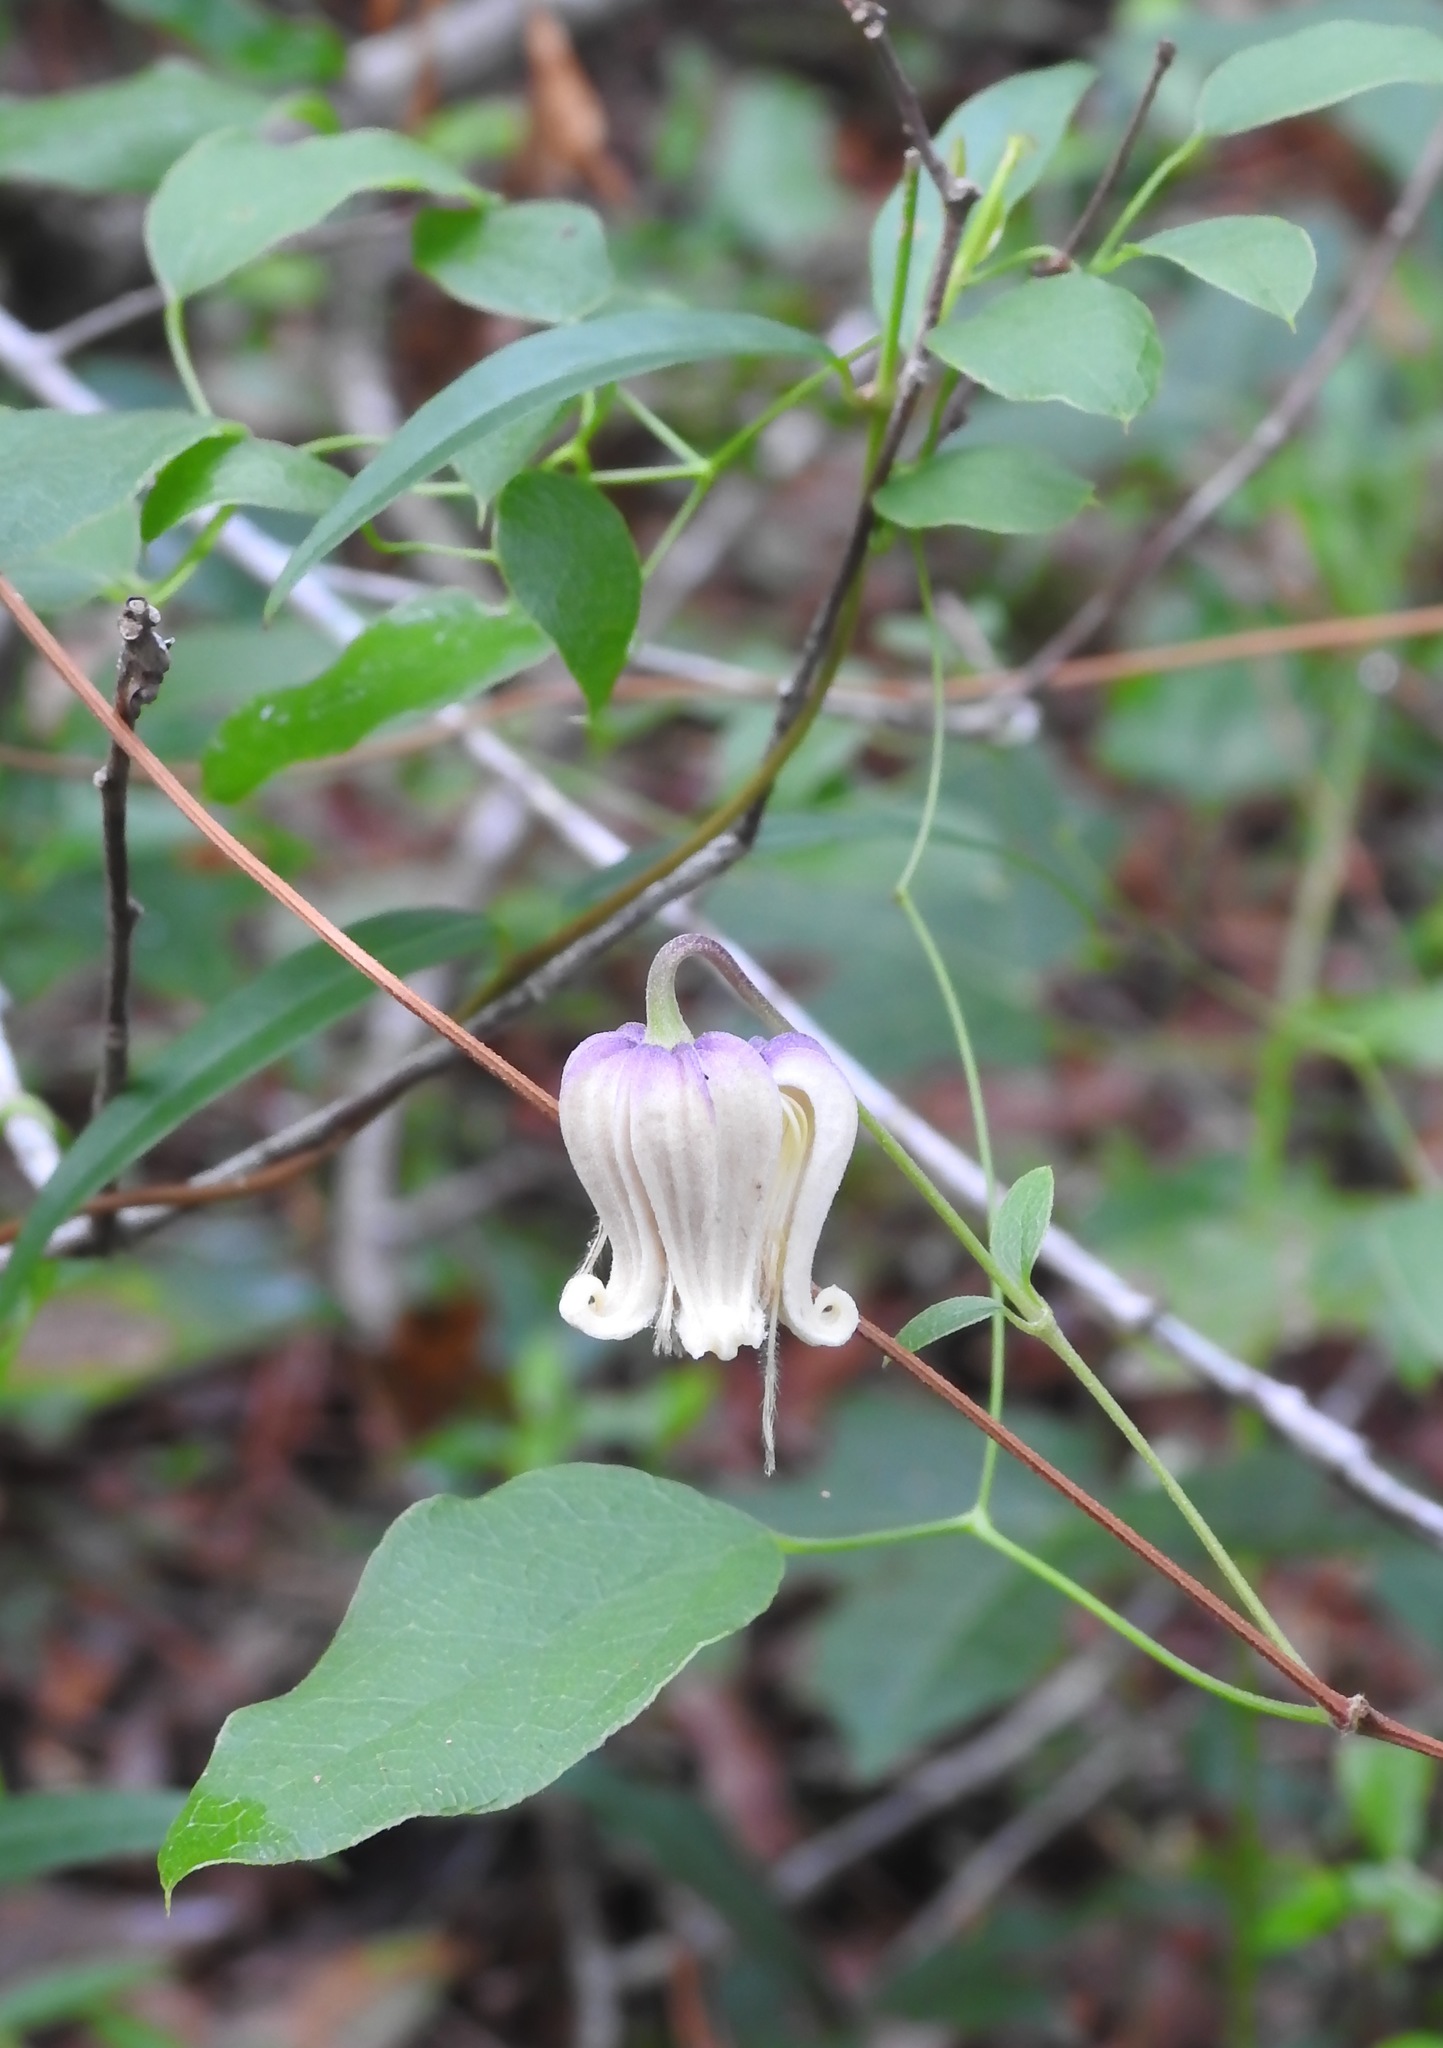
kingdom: Plantae
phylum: Tracheophyta
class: Magnoliopsida
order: Ranunculales
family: Ranunculaceae
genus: Clematis
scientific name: Clematis reticulata
